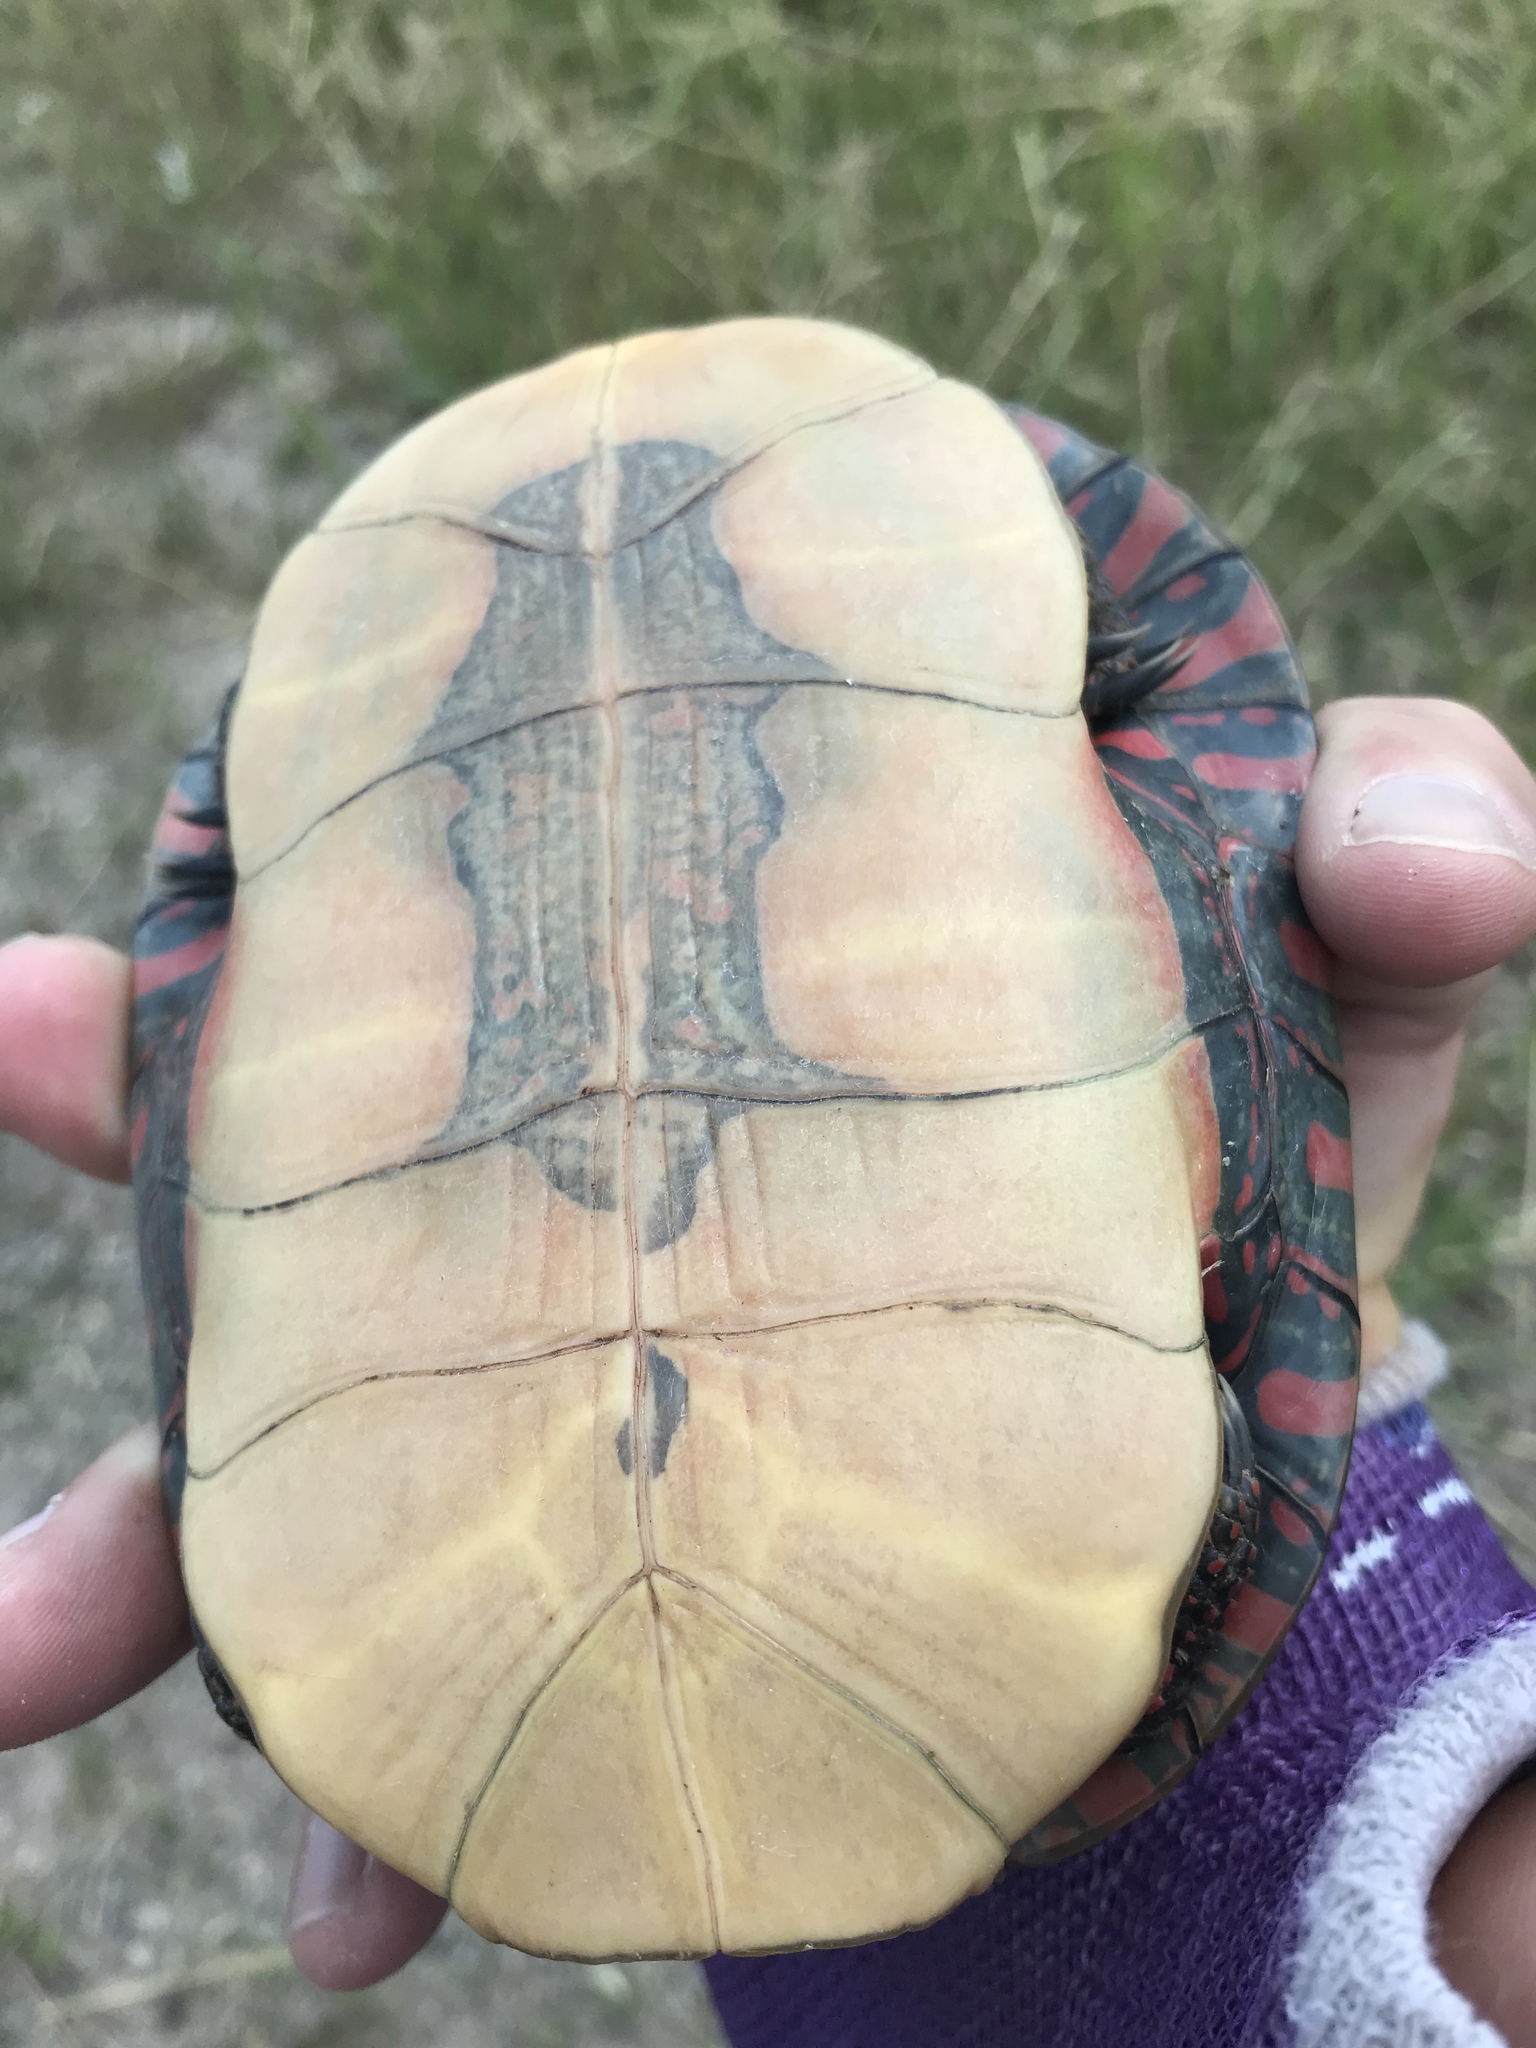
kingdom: Animalia
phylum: Chordata
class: Testudines
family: Emydidae
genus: Chrysemys
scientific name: Chrysemys picta
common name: Painted turtle
